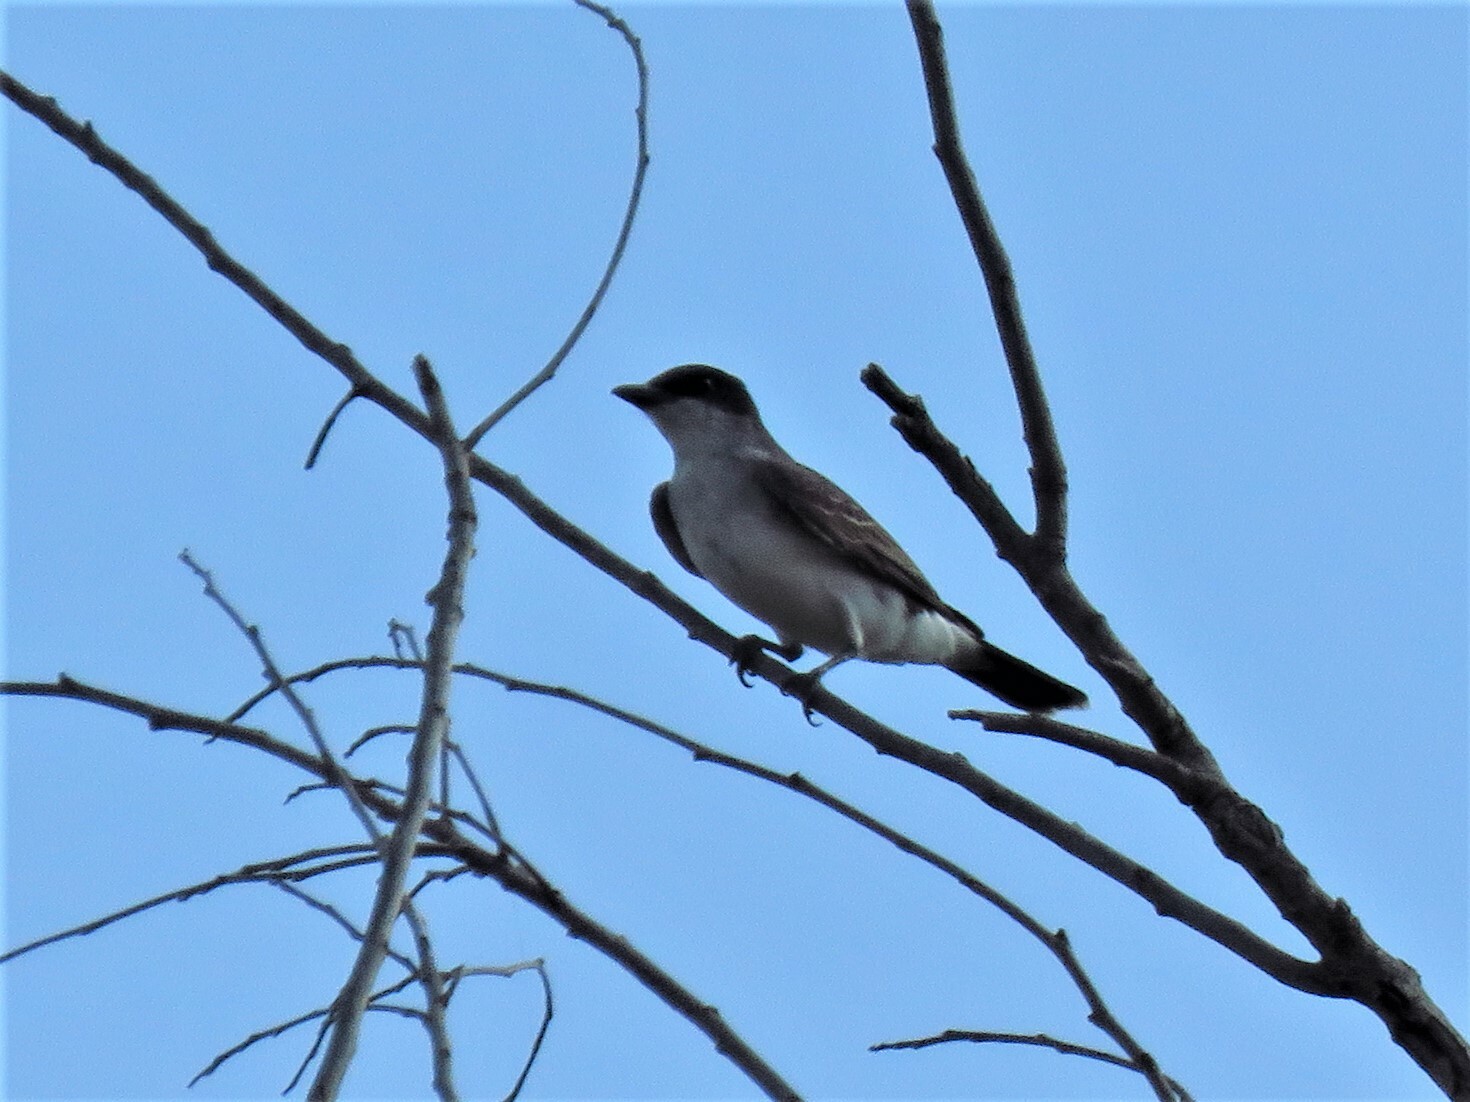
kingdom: Animalia
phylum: Chordata
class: Aves
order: Passeriformes
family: Tyrannidae
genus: Tyrannus
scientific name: Tyrannus tyrannus
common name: Eastern kingbird
